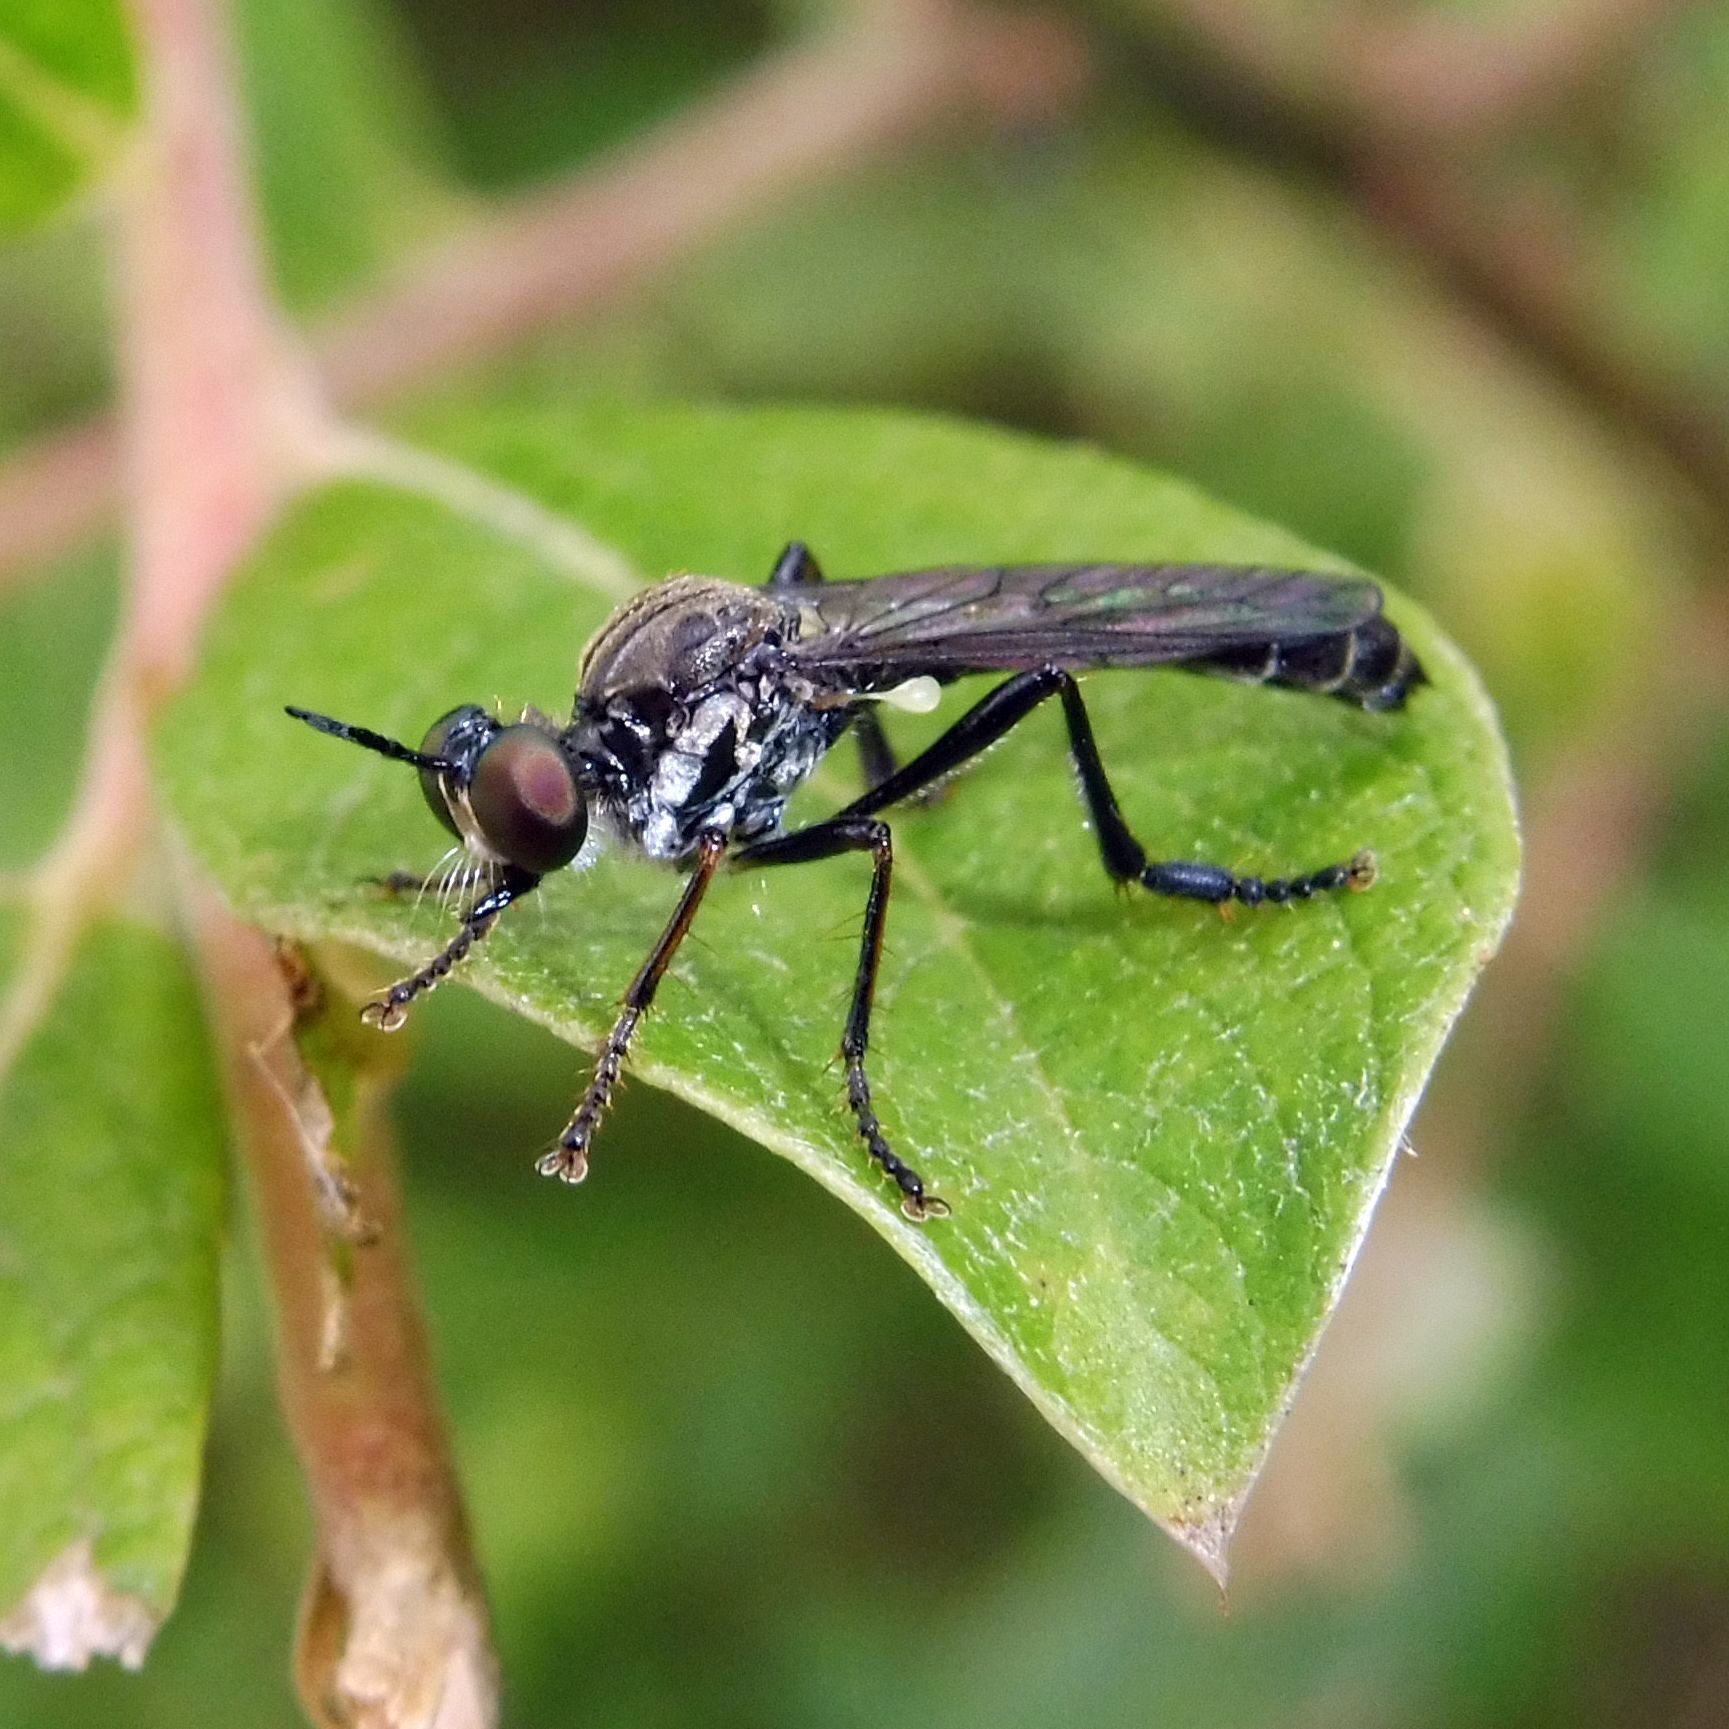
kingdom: Animalia
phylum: Arthropoda
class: Insecta
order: Diptera
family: Asilidae
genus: Dioctria
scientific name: Dioctria hyalipennis
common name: Stripe-legged robberfly
